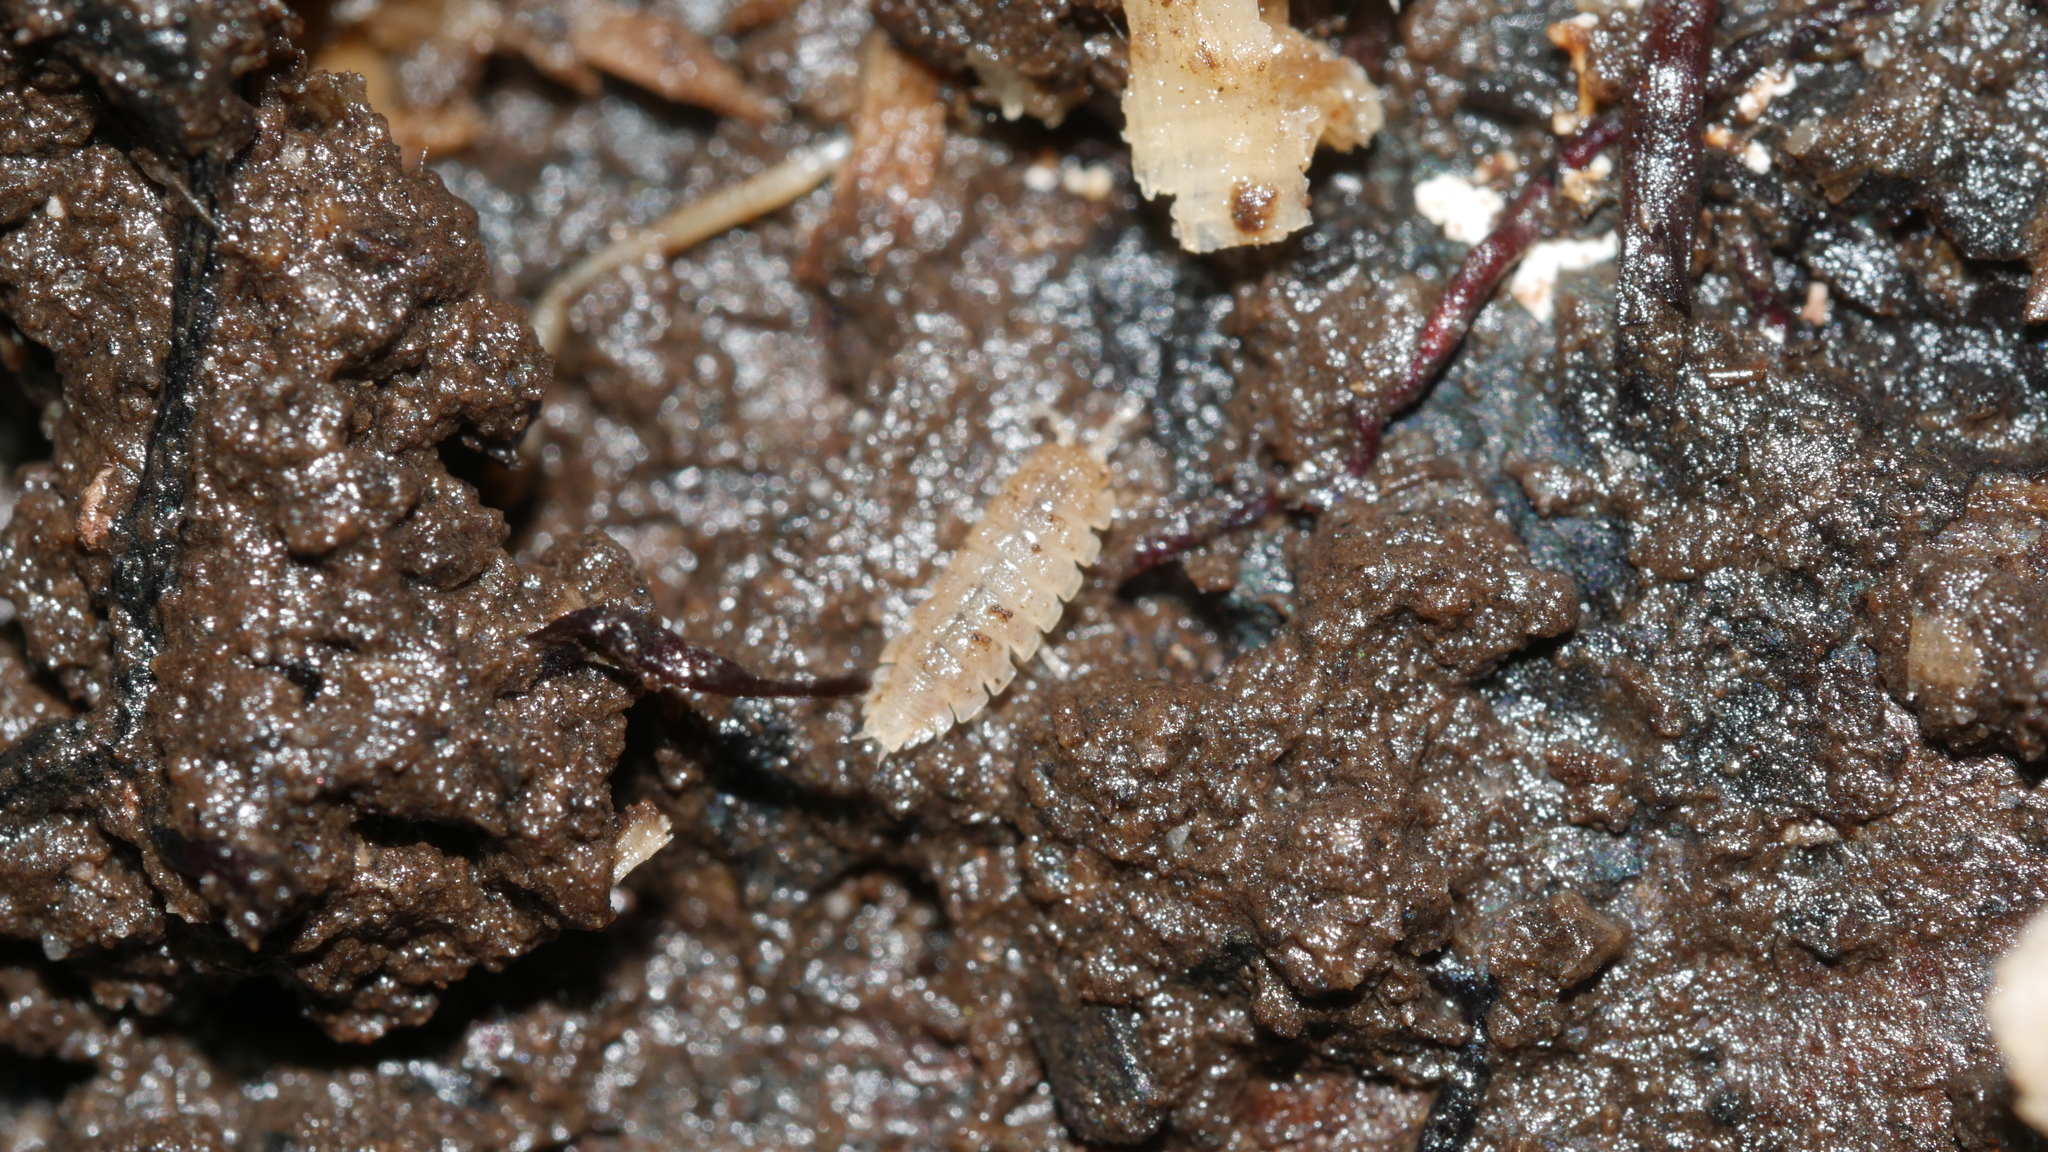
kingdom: Animalia
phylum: Arthropoda
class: Malacostraca
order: Isopoda
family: Trichoniscidae
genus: Haplophthalmus
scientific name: Haplophthalmus danicus
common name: Pillbug
